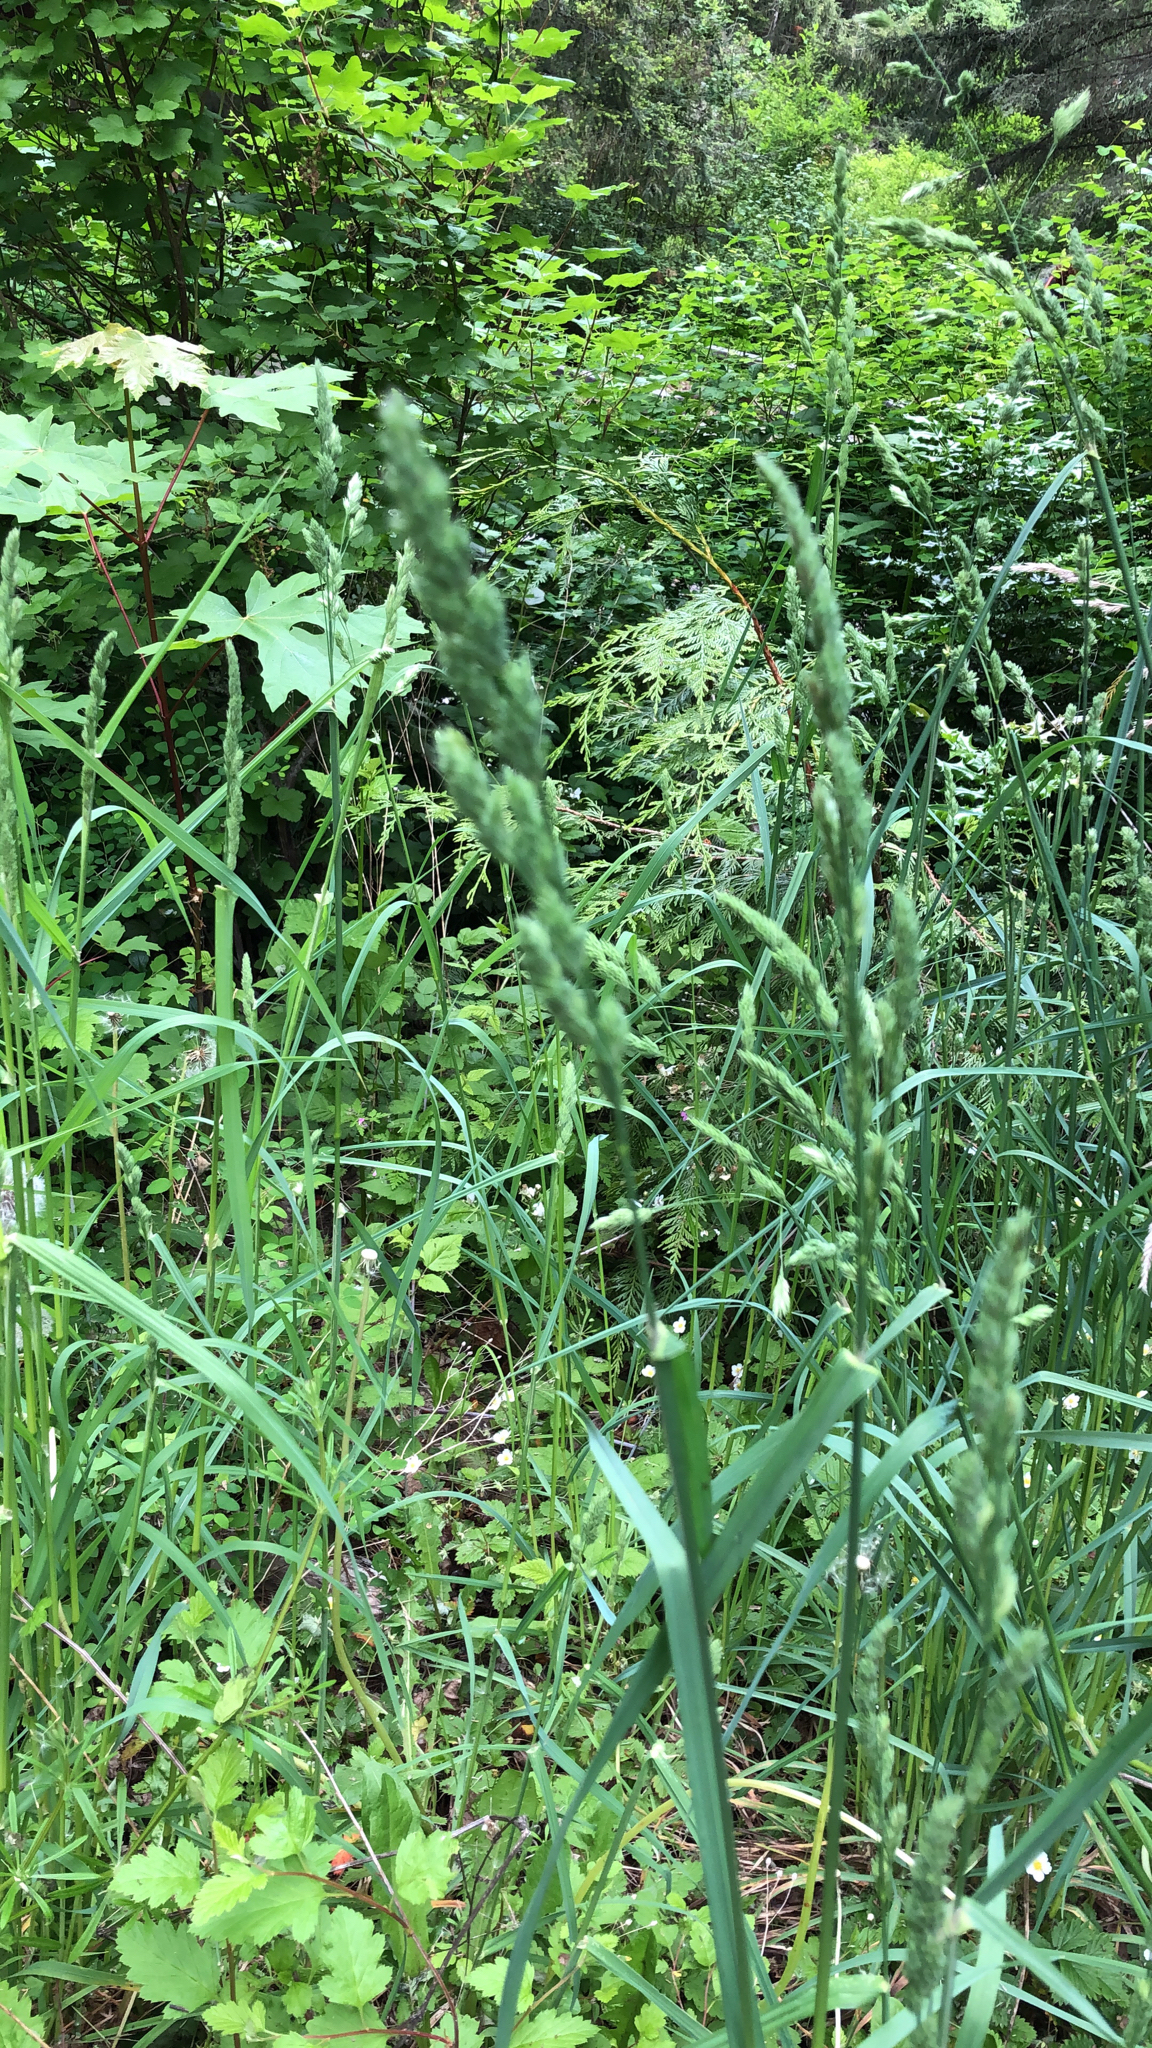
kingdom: Plantae
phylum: Tracheophyta
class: Liliopsida
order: Poales
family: Poaceae
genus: Dactylis
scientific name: Dactylis glomerata
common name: Orchardgrass
